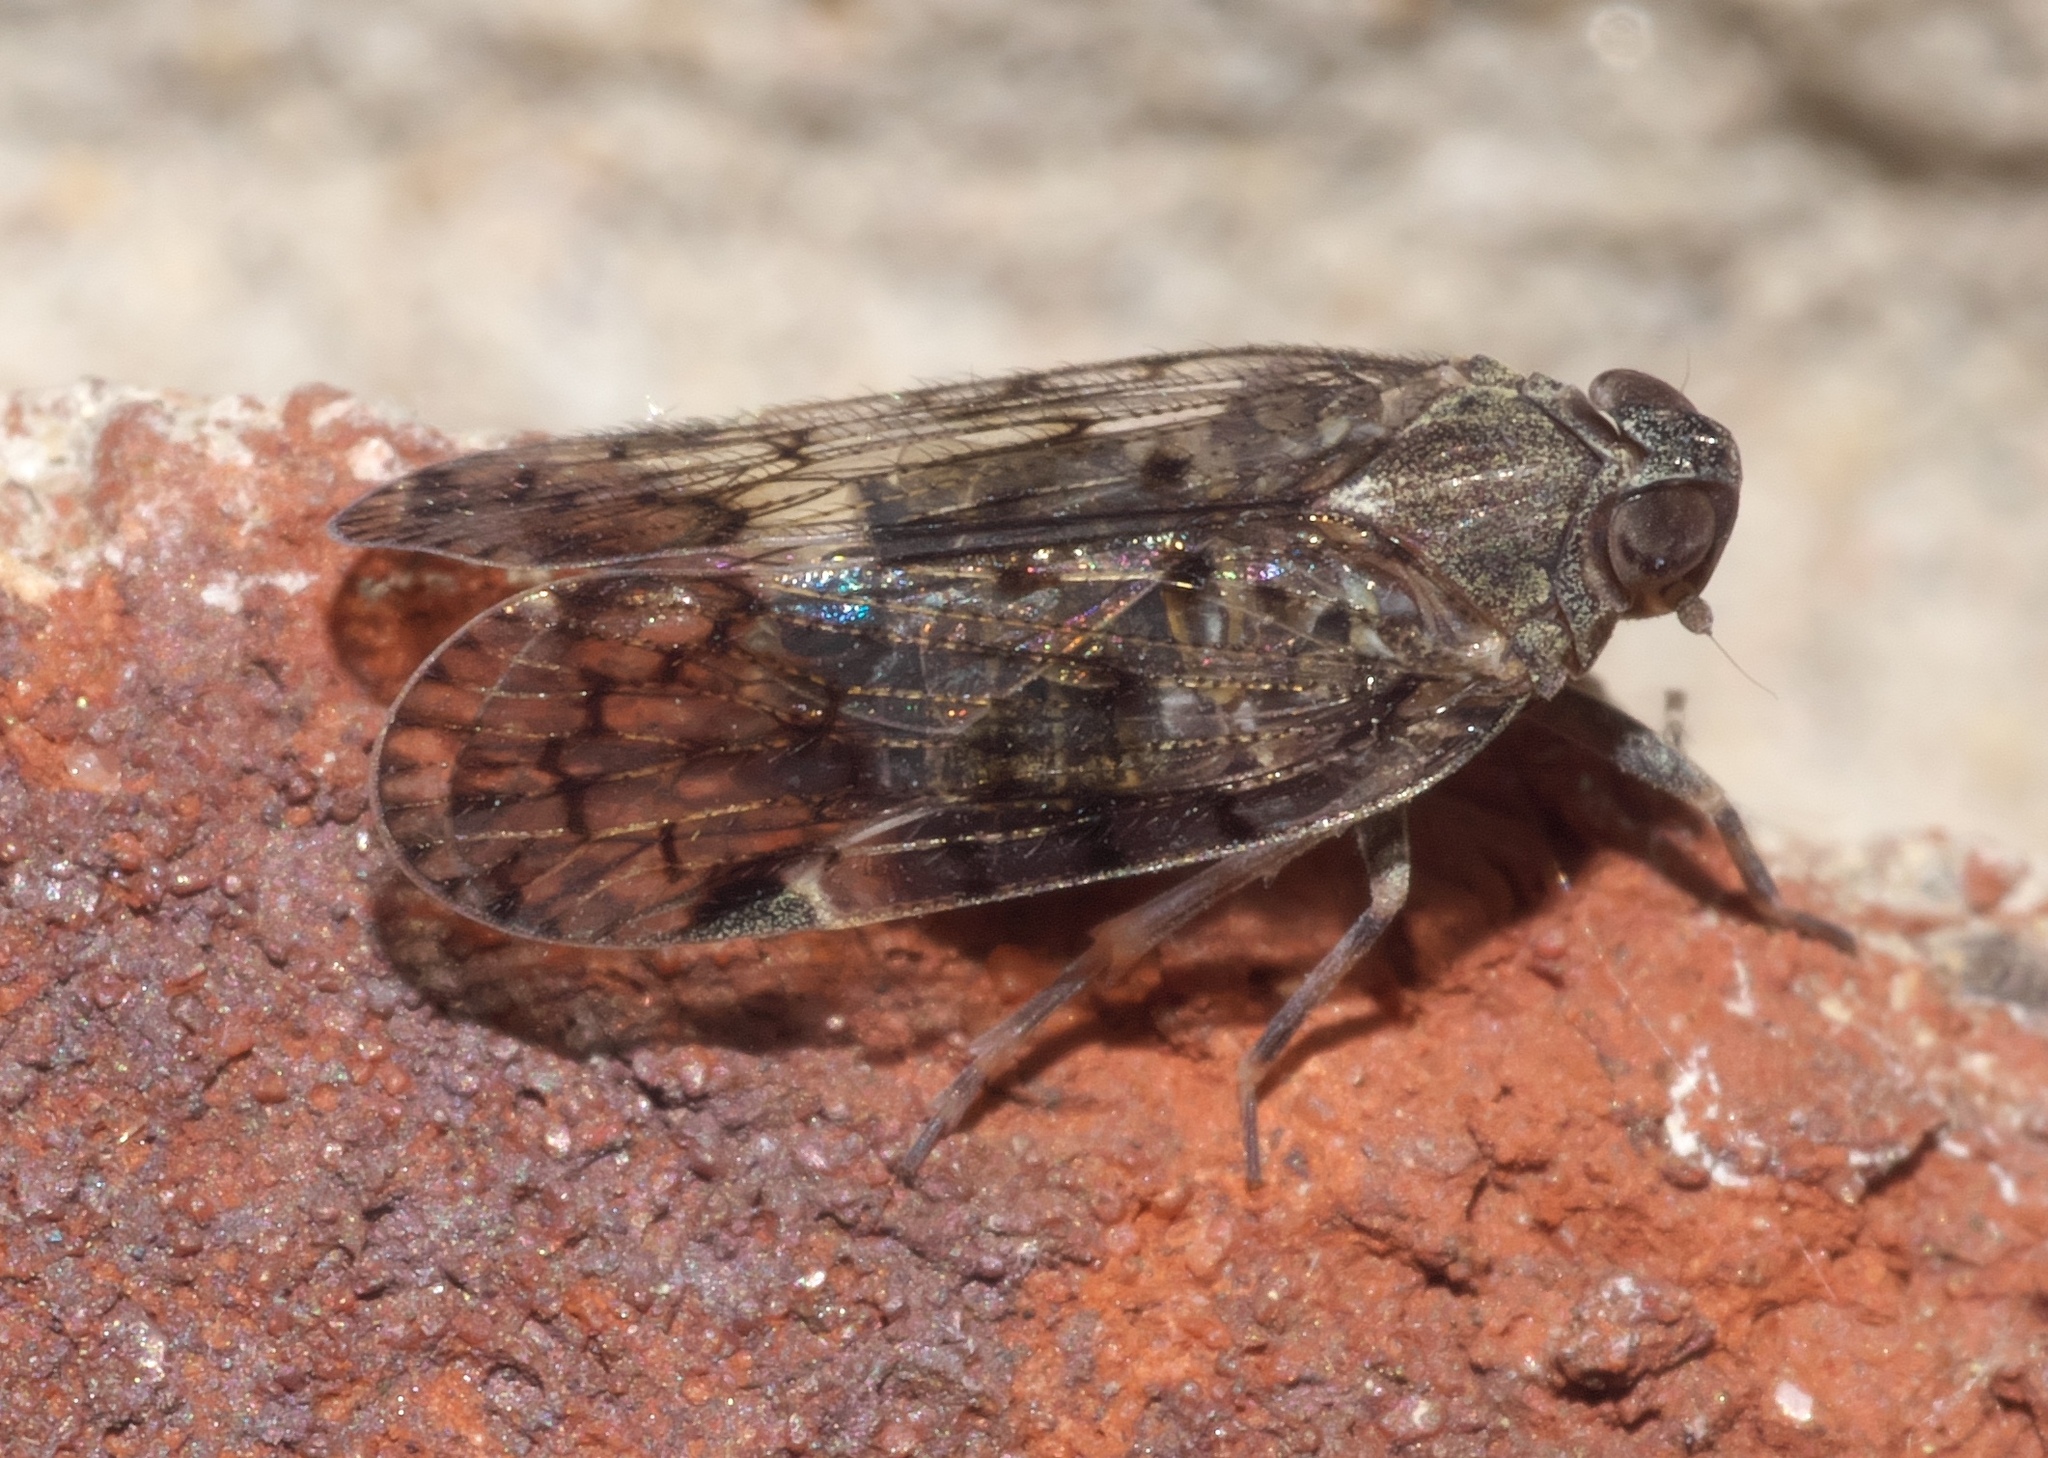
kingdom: Animalia
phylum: Arthropoda
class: Insecta
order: Hemiptera
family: Cixiidae
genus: Melanoliarus
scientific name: Melanoliarus placitus
